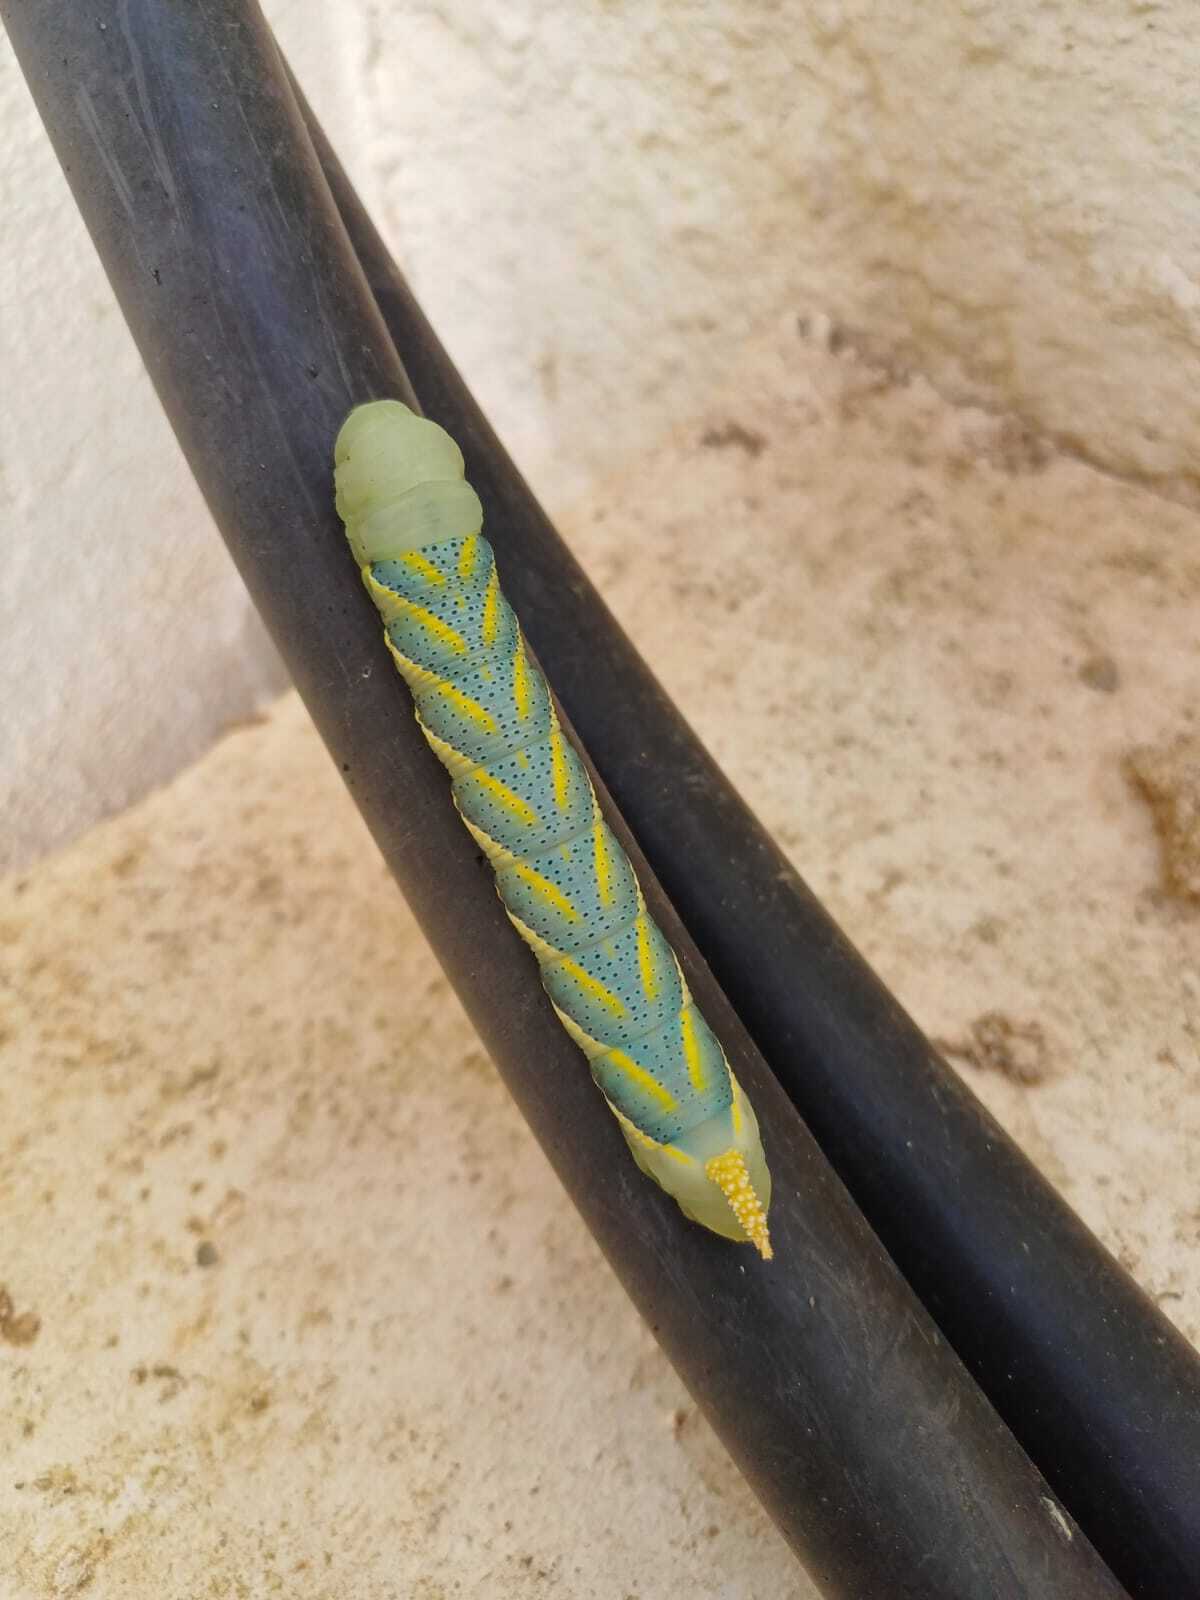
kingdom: Animalia
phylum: Arthropoda
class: Insecta
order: Lepidoptera
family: Sphingidae
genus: Acherontia
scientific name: Acherontia atropos
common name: Death's-head hawk moth
